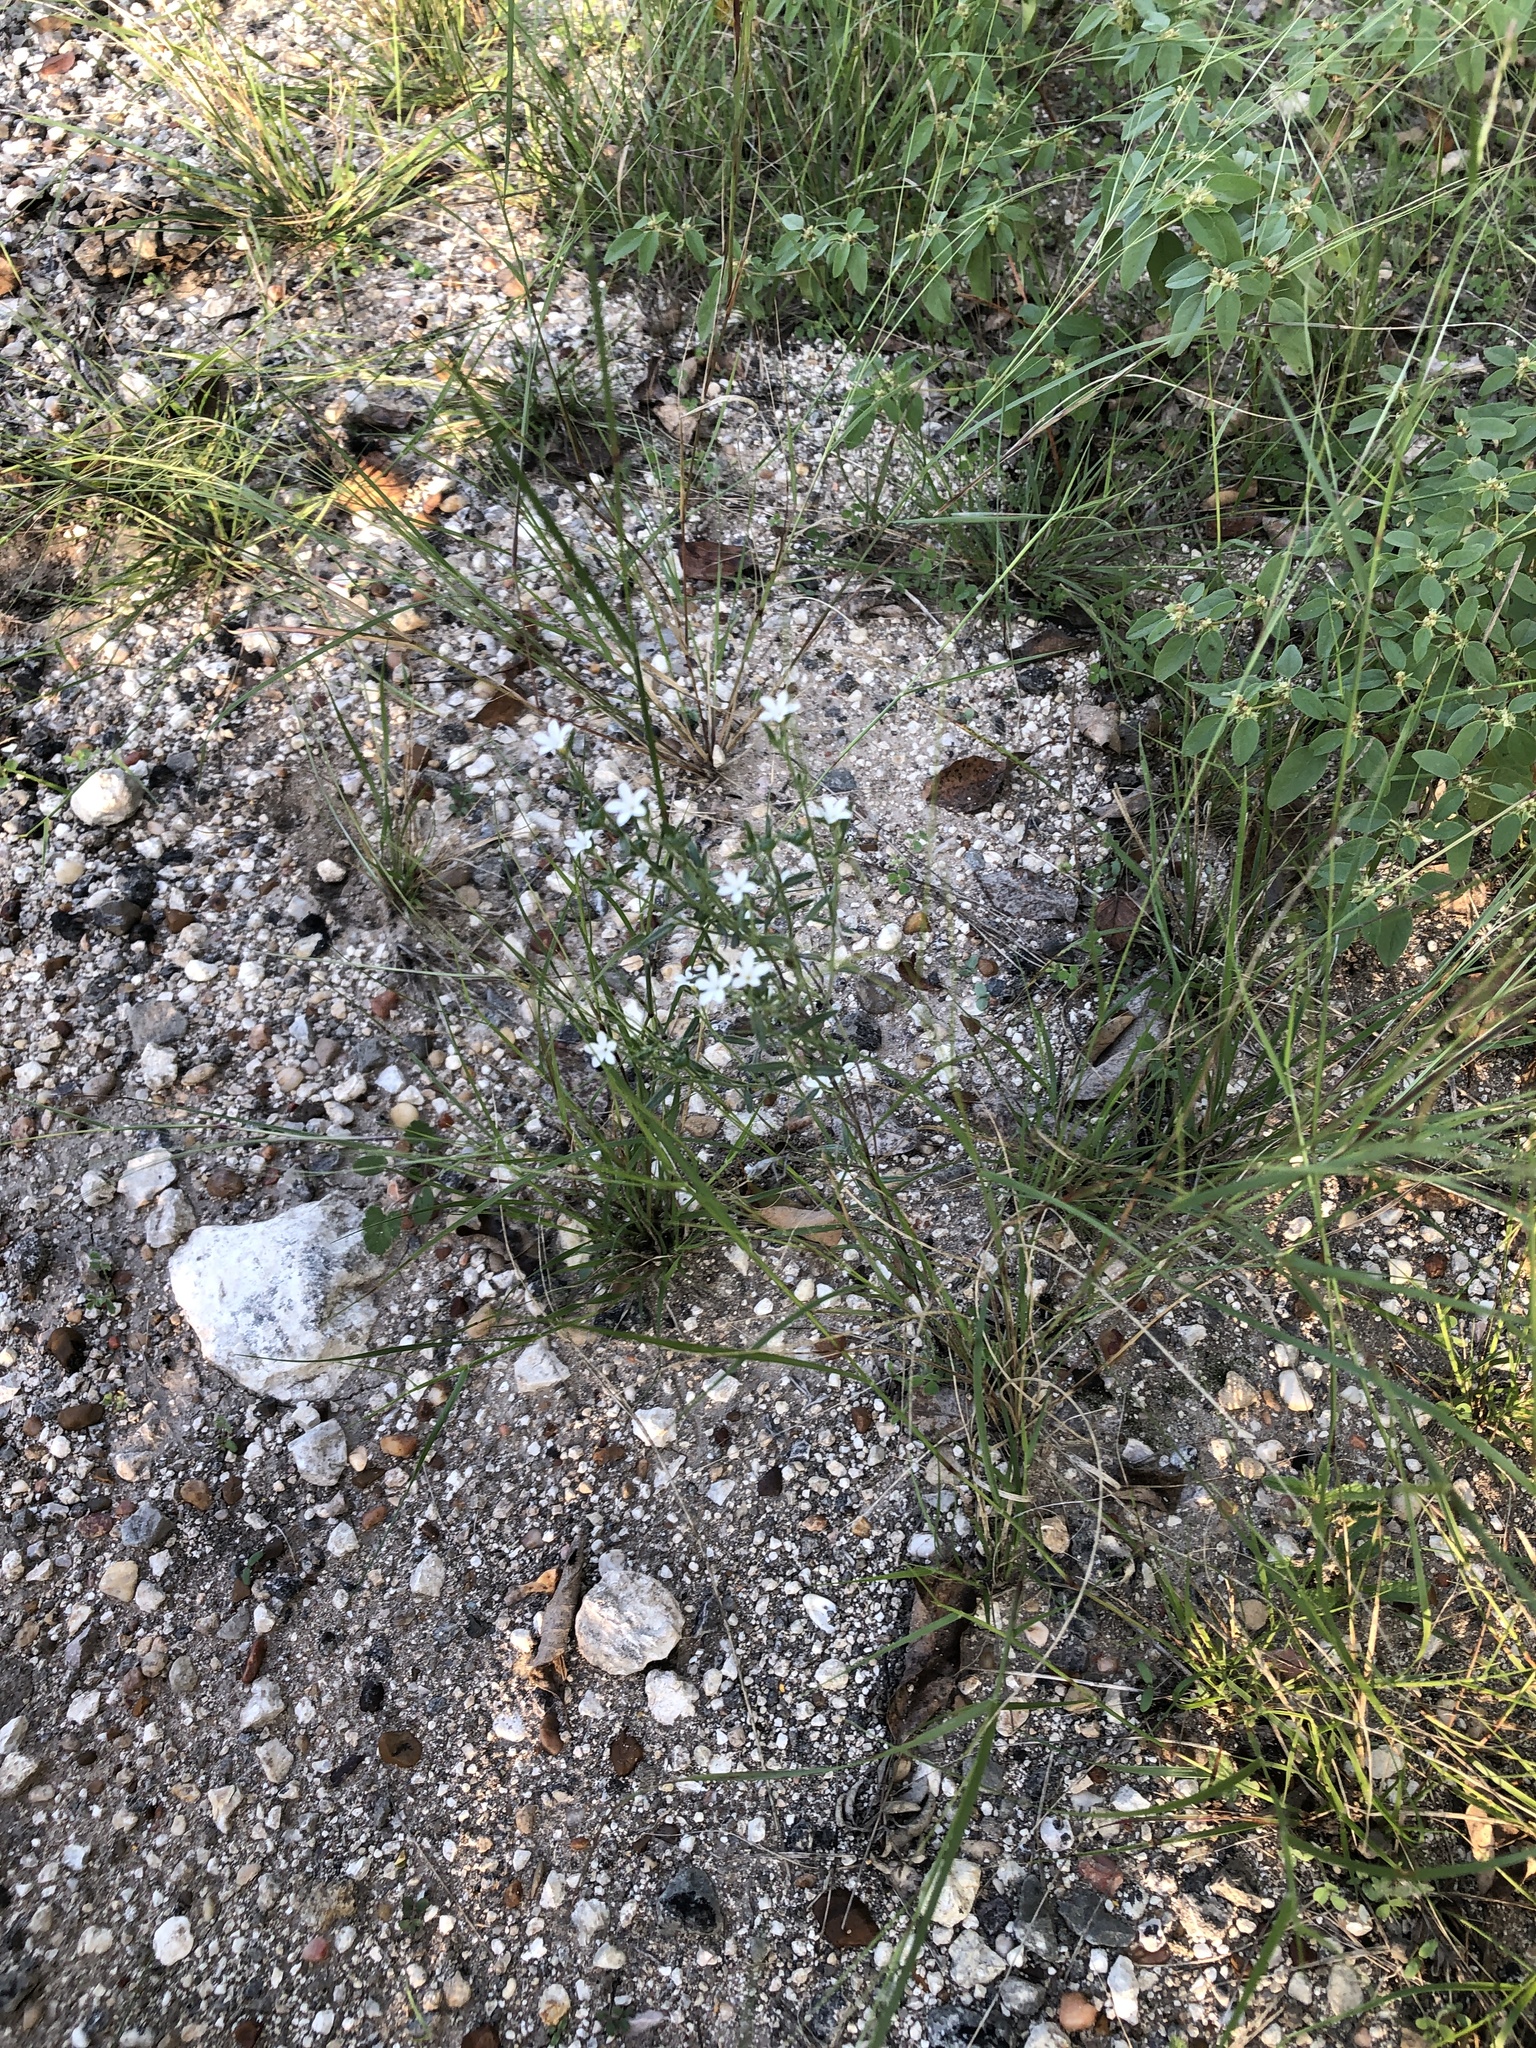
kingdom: Plantae
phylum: Tracheophyta
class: Magnoliopsida
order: Boraginales
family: Heliotropiaceae
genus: Euploca
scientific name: Euploca tenella
